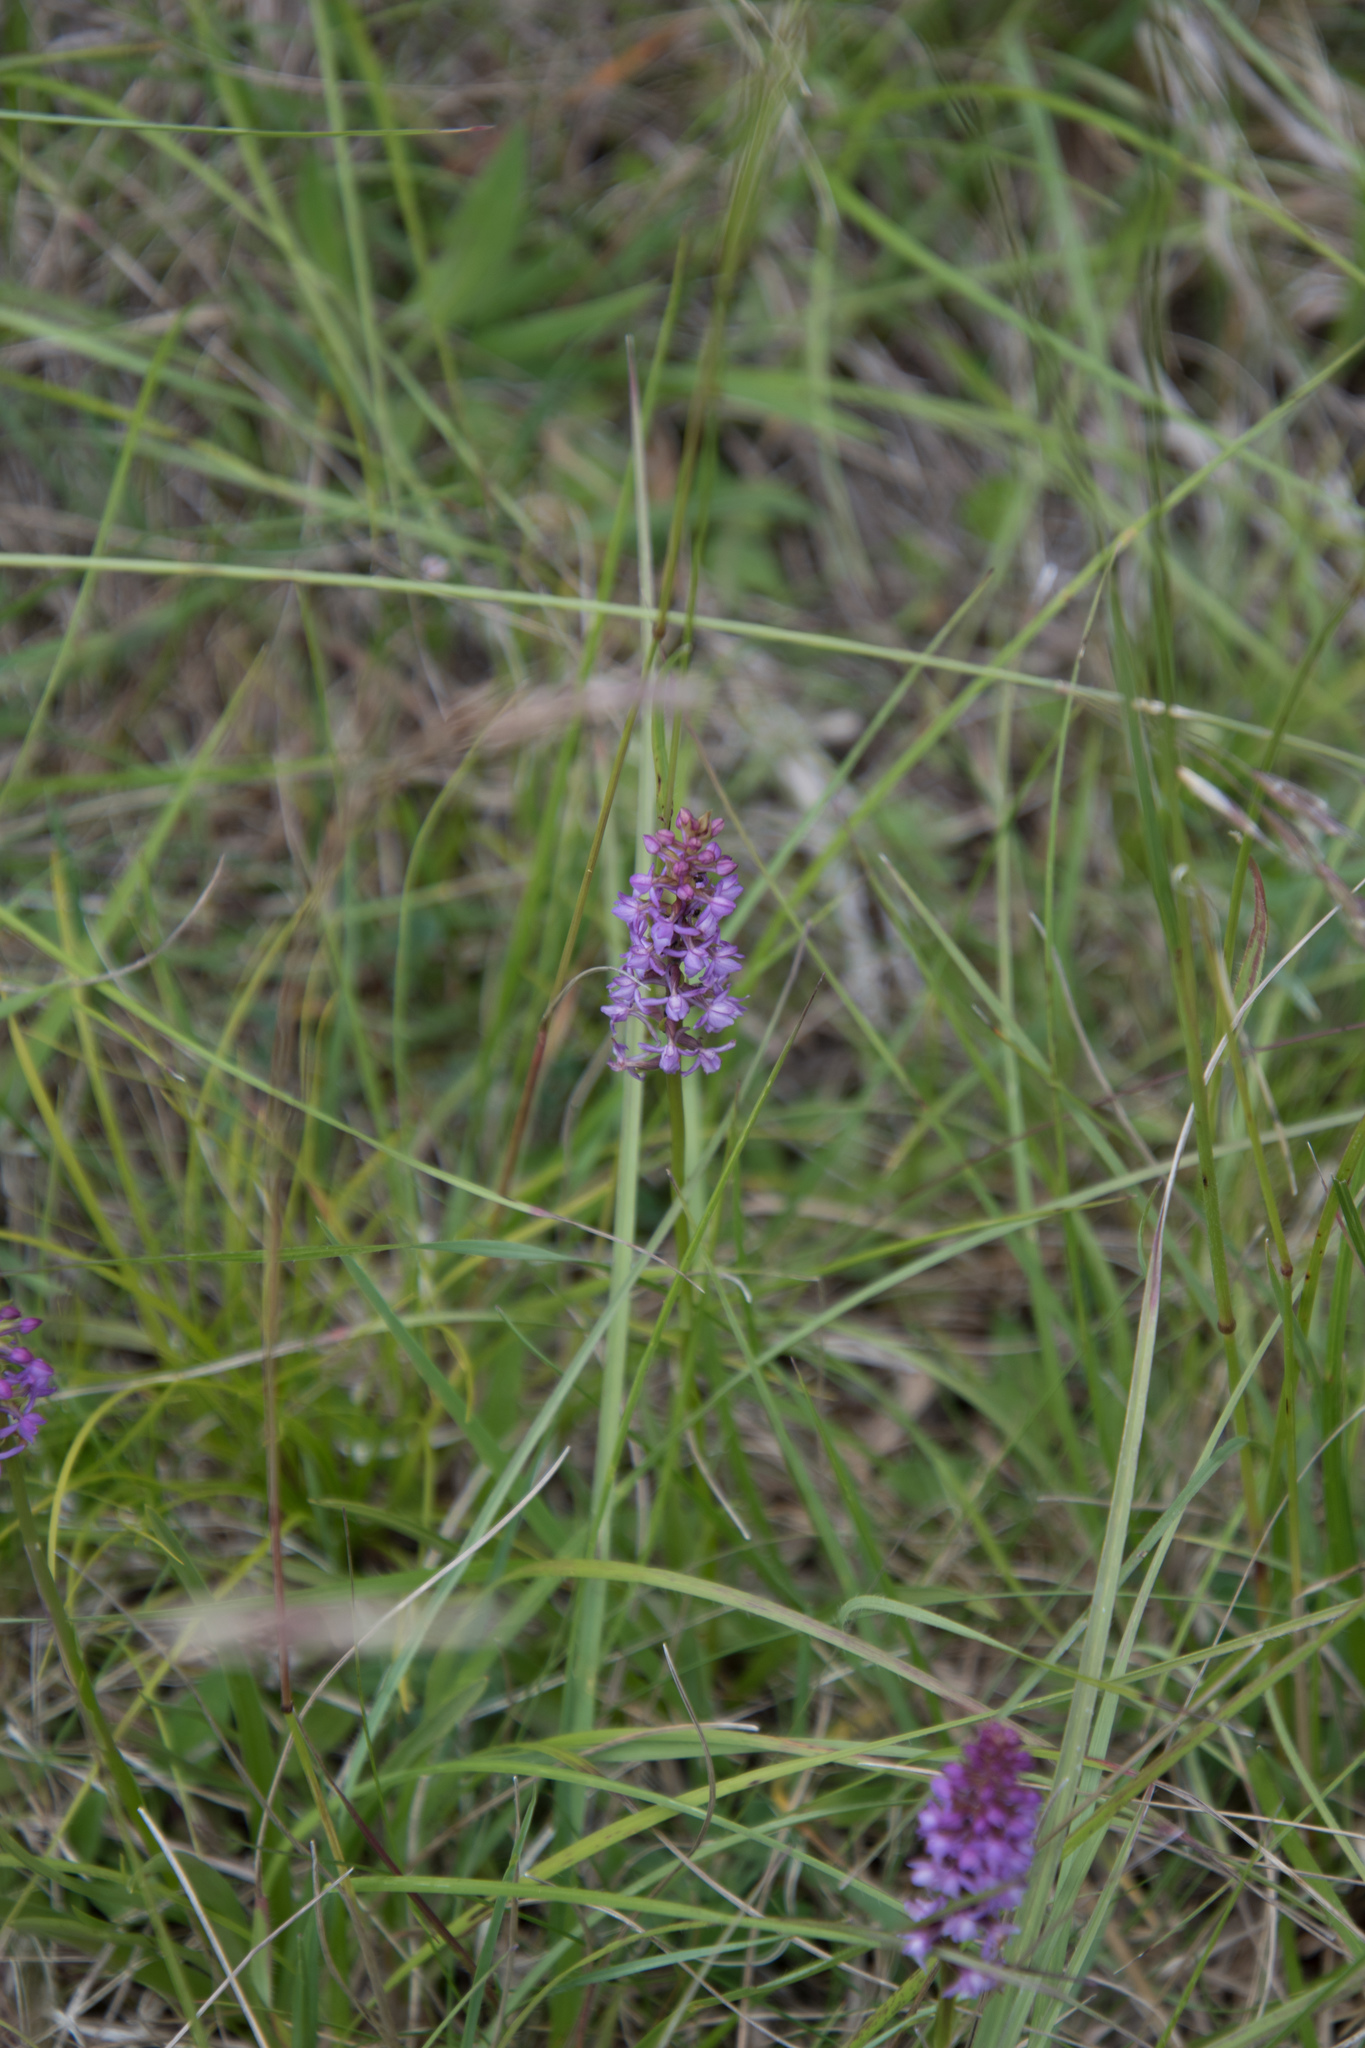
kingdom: Plantae
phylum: Tracheophyta
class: Liliopsida
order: Asparagales
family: Orchidaceae
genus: Gymnadenia
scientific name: Gymnadenia odoratissima
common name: Scented gymnadenia
